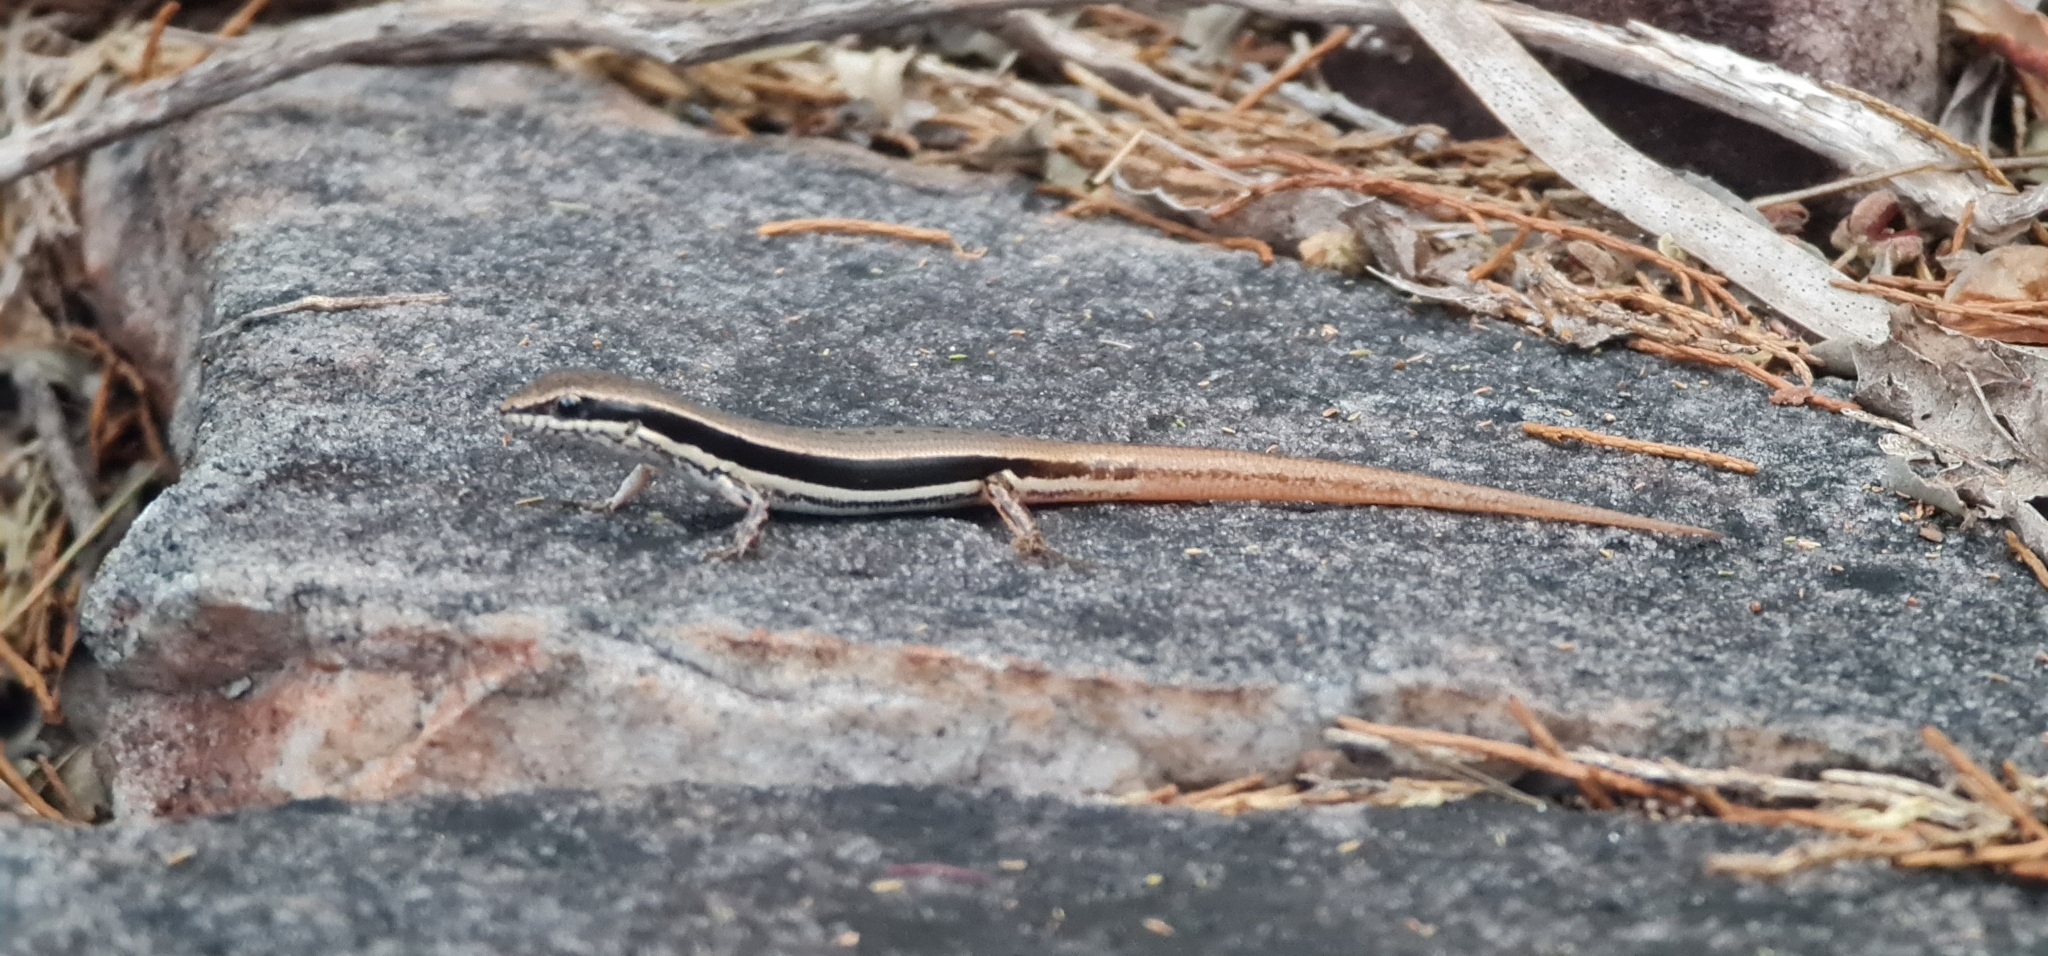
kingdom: Animalia
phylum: Chordata
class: Squamata
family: Scincidae
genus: Notoscincus
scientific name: Notoscincus ornatus
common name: Ornate soil-crevice skink
